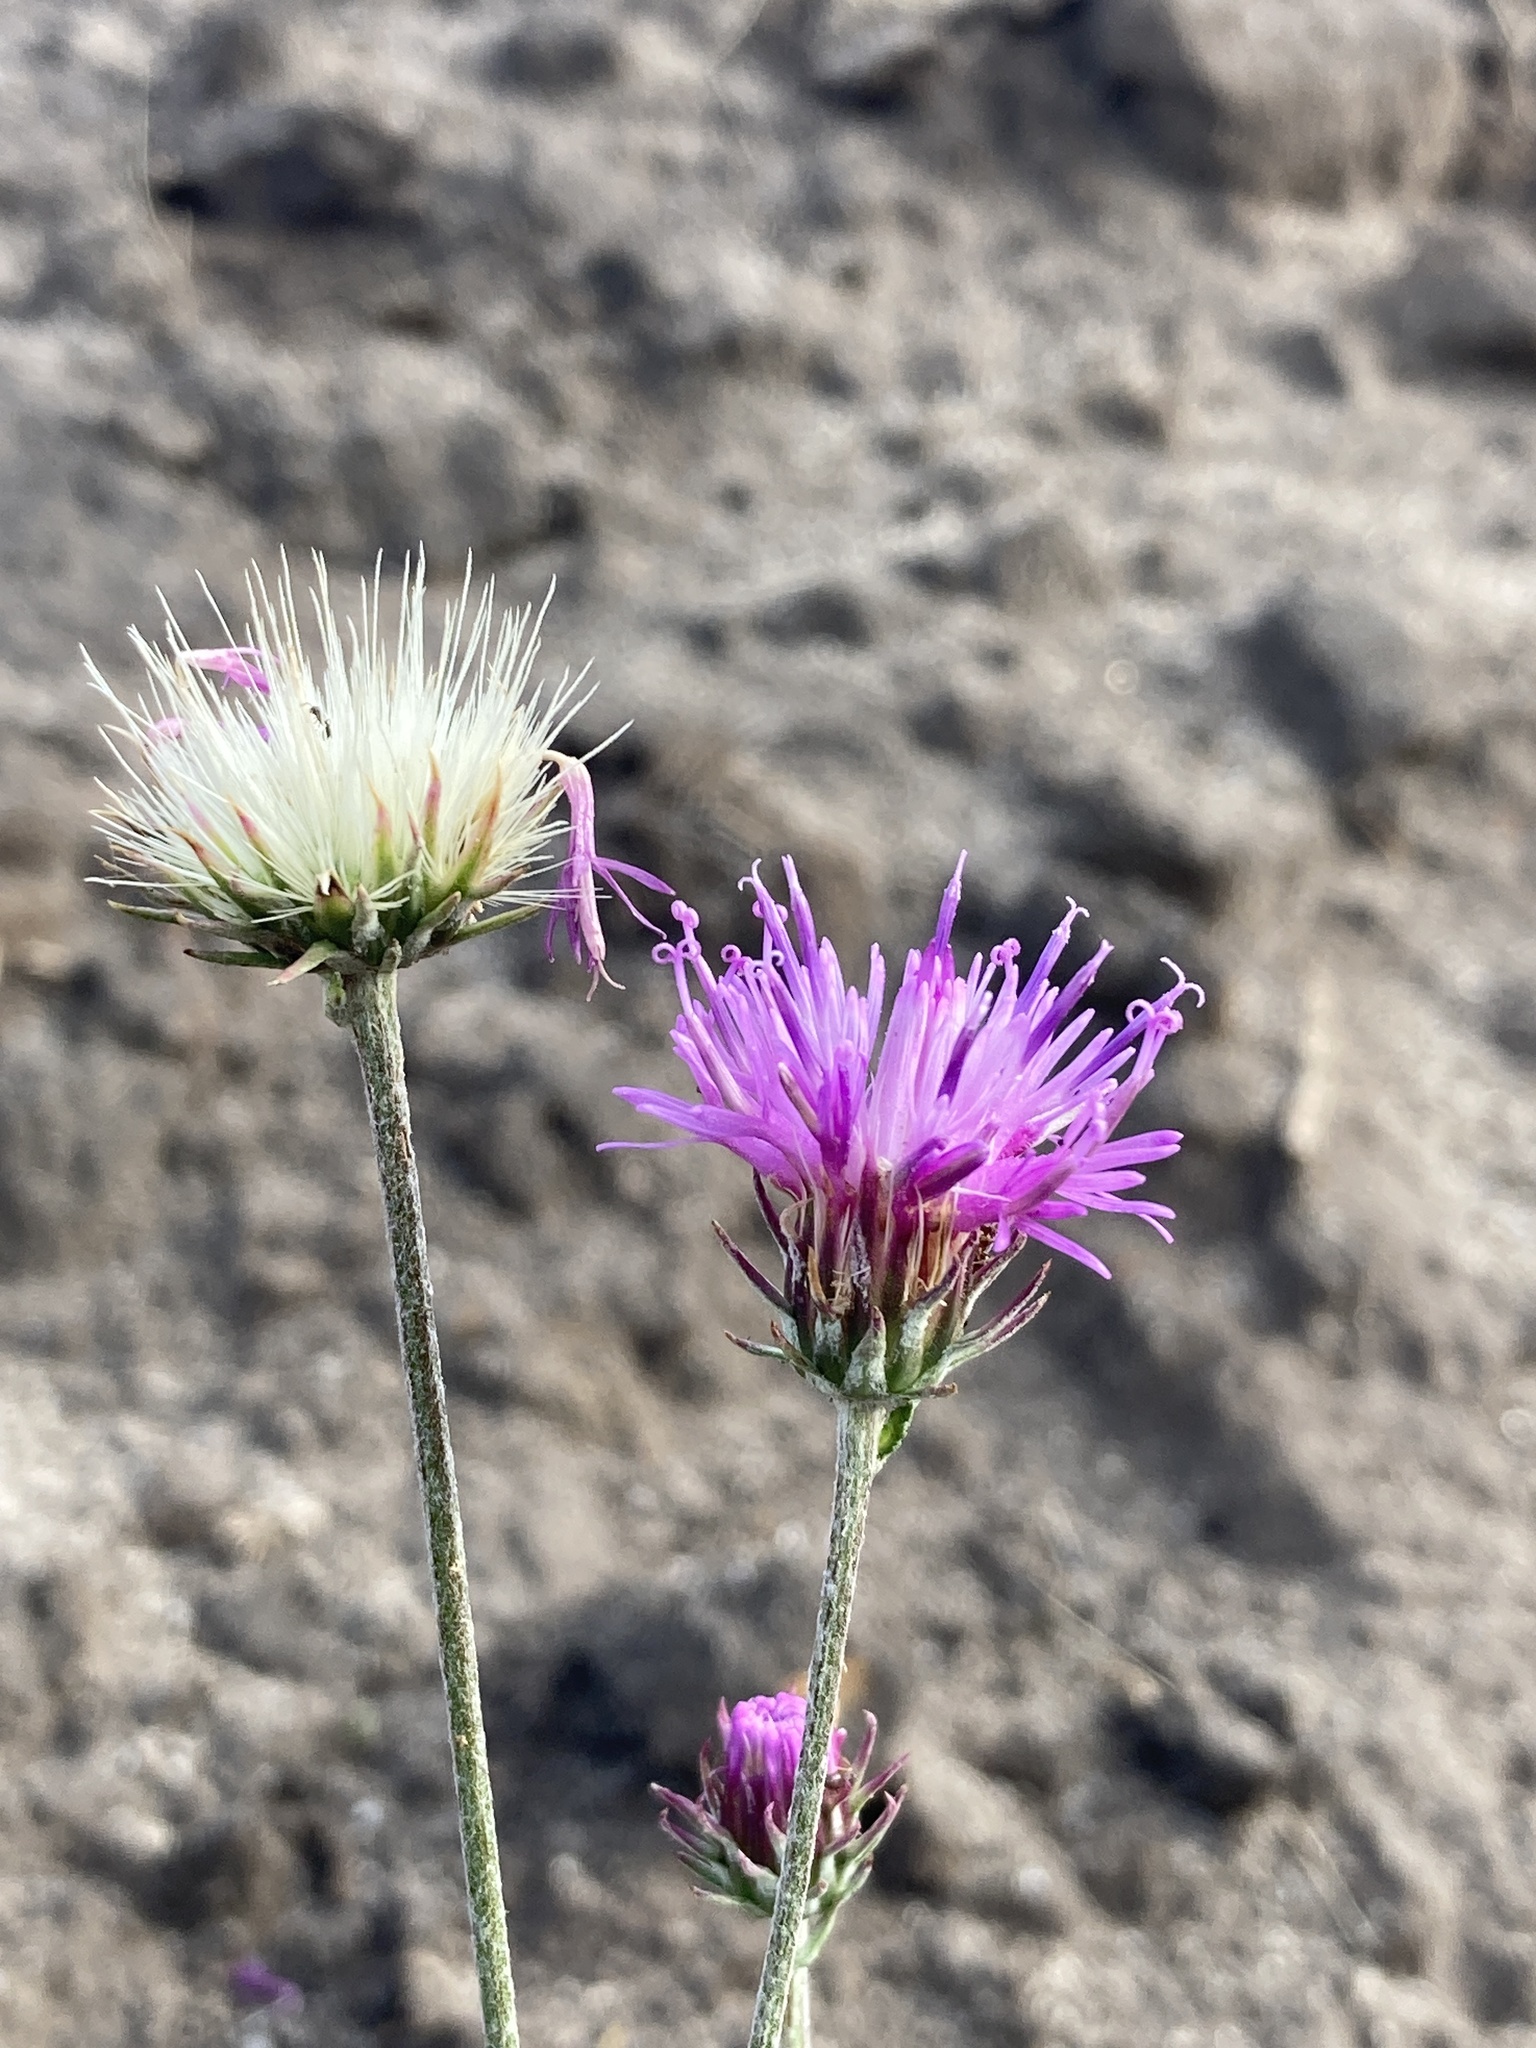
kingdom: Plantae
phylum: Tracheophyta
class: Magnoliopsida
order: Asterales
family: Asteraceae
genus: Jurinea
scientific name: Jurinea cyanoides
